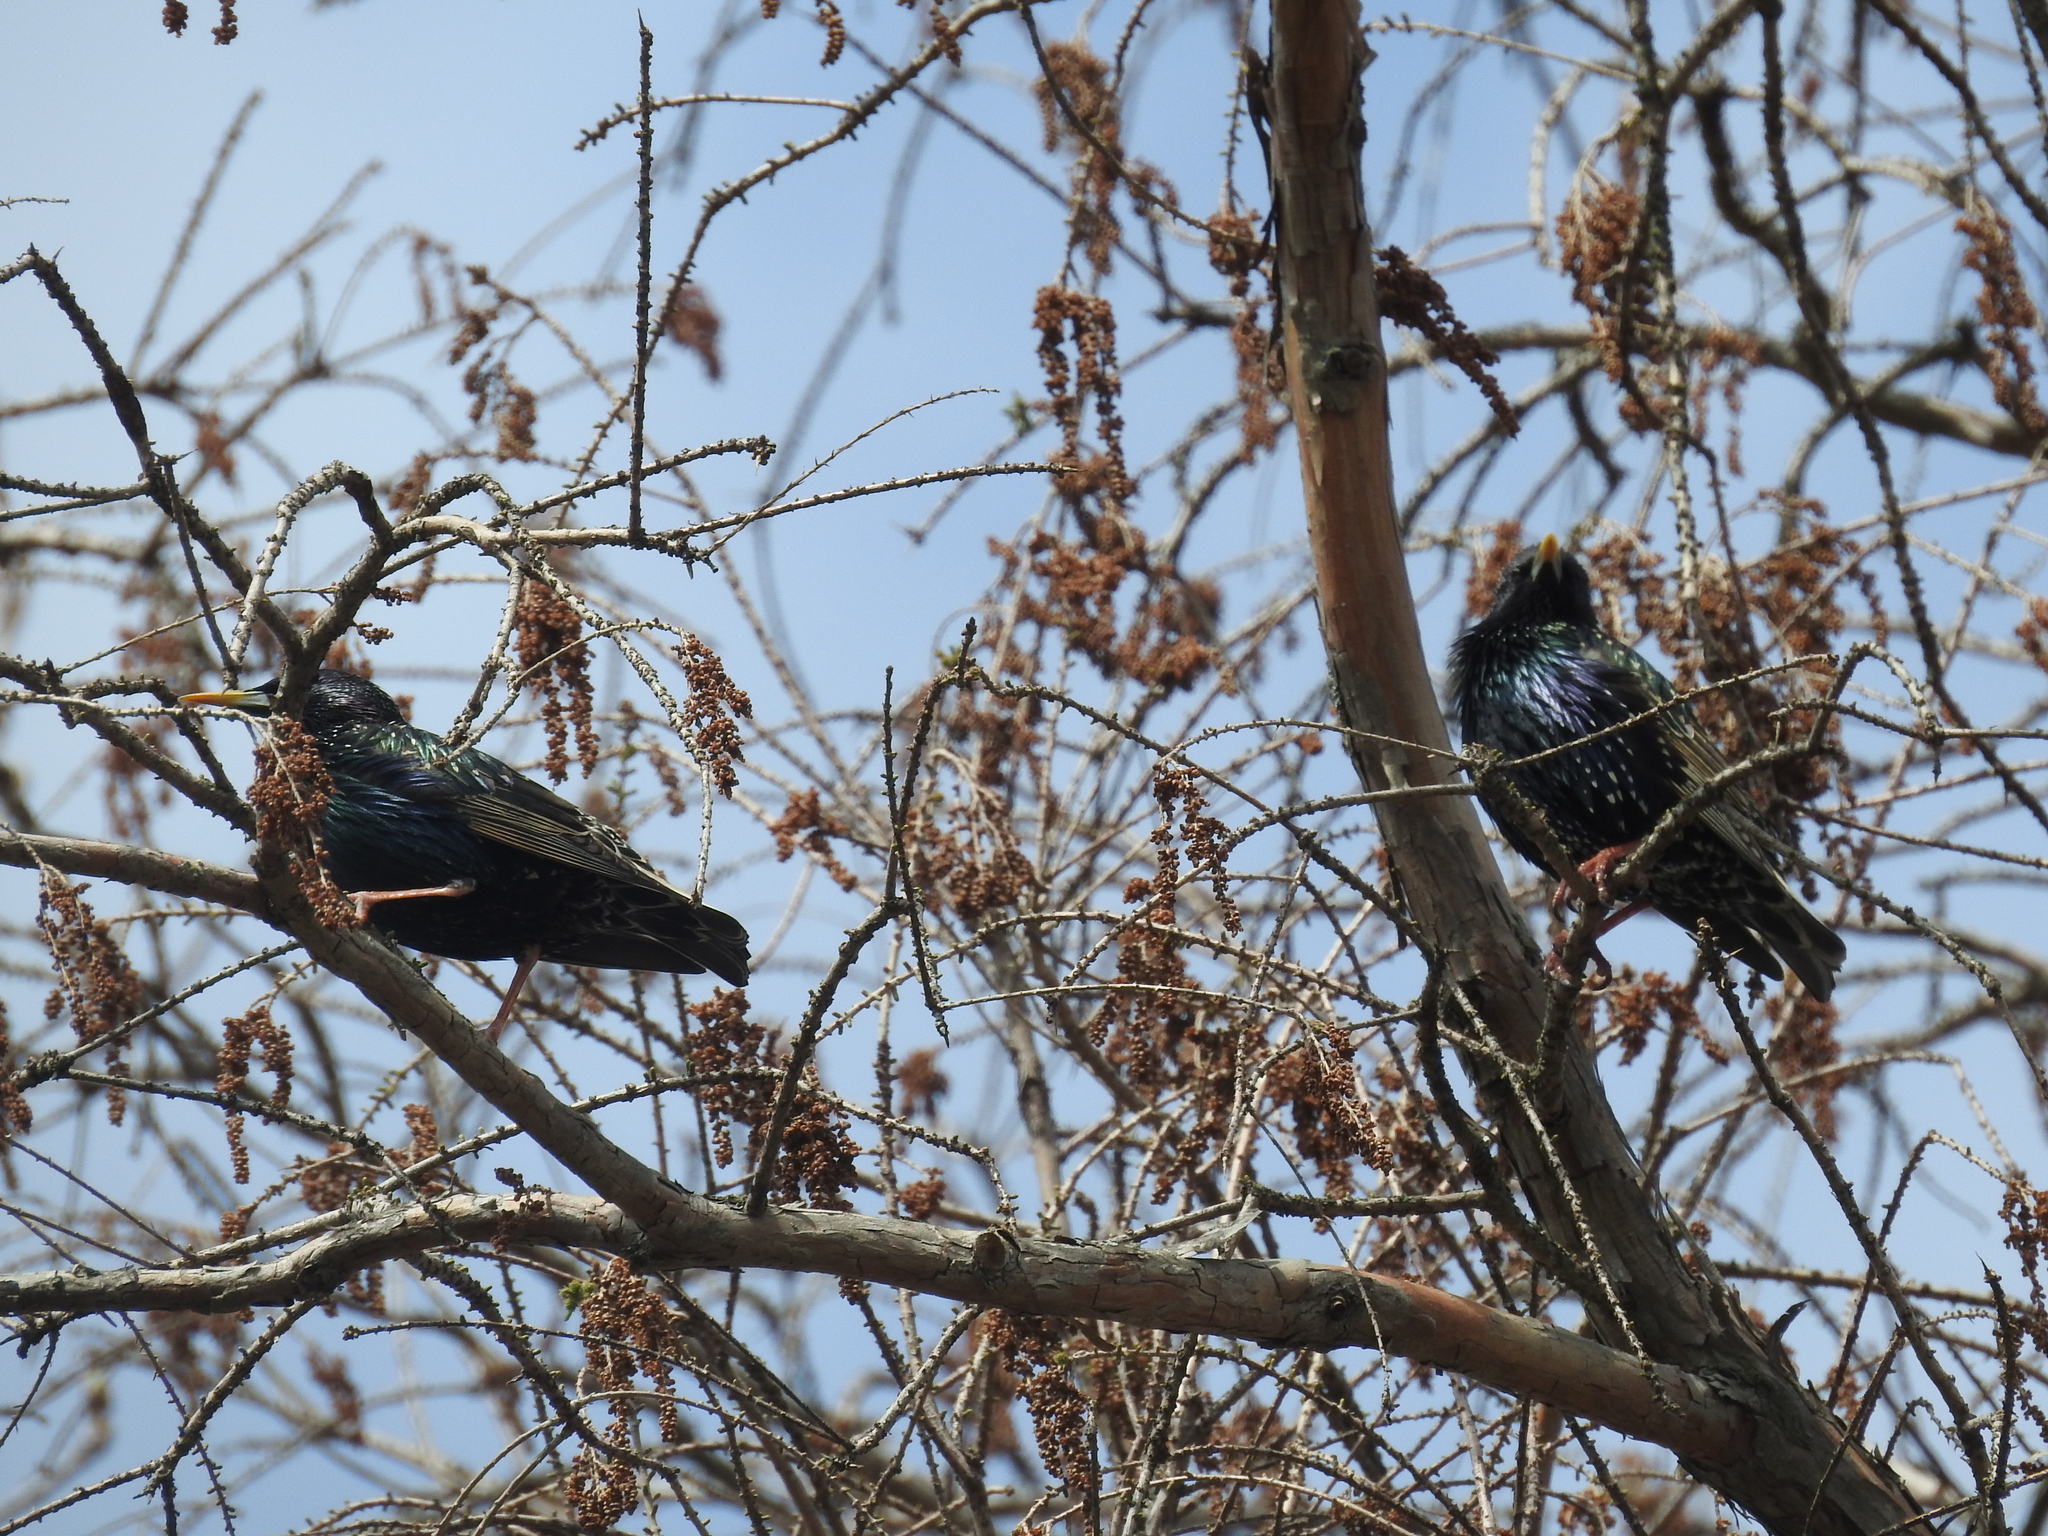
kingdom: Animalia
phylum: Chordata
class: Aves
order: Passeriformes
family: Sturnidae
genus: Sturnus
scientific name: Sturnus vulgaris
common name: Common starling
